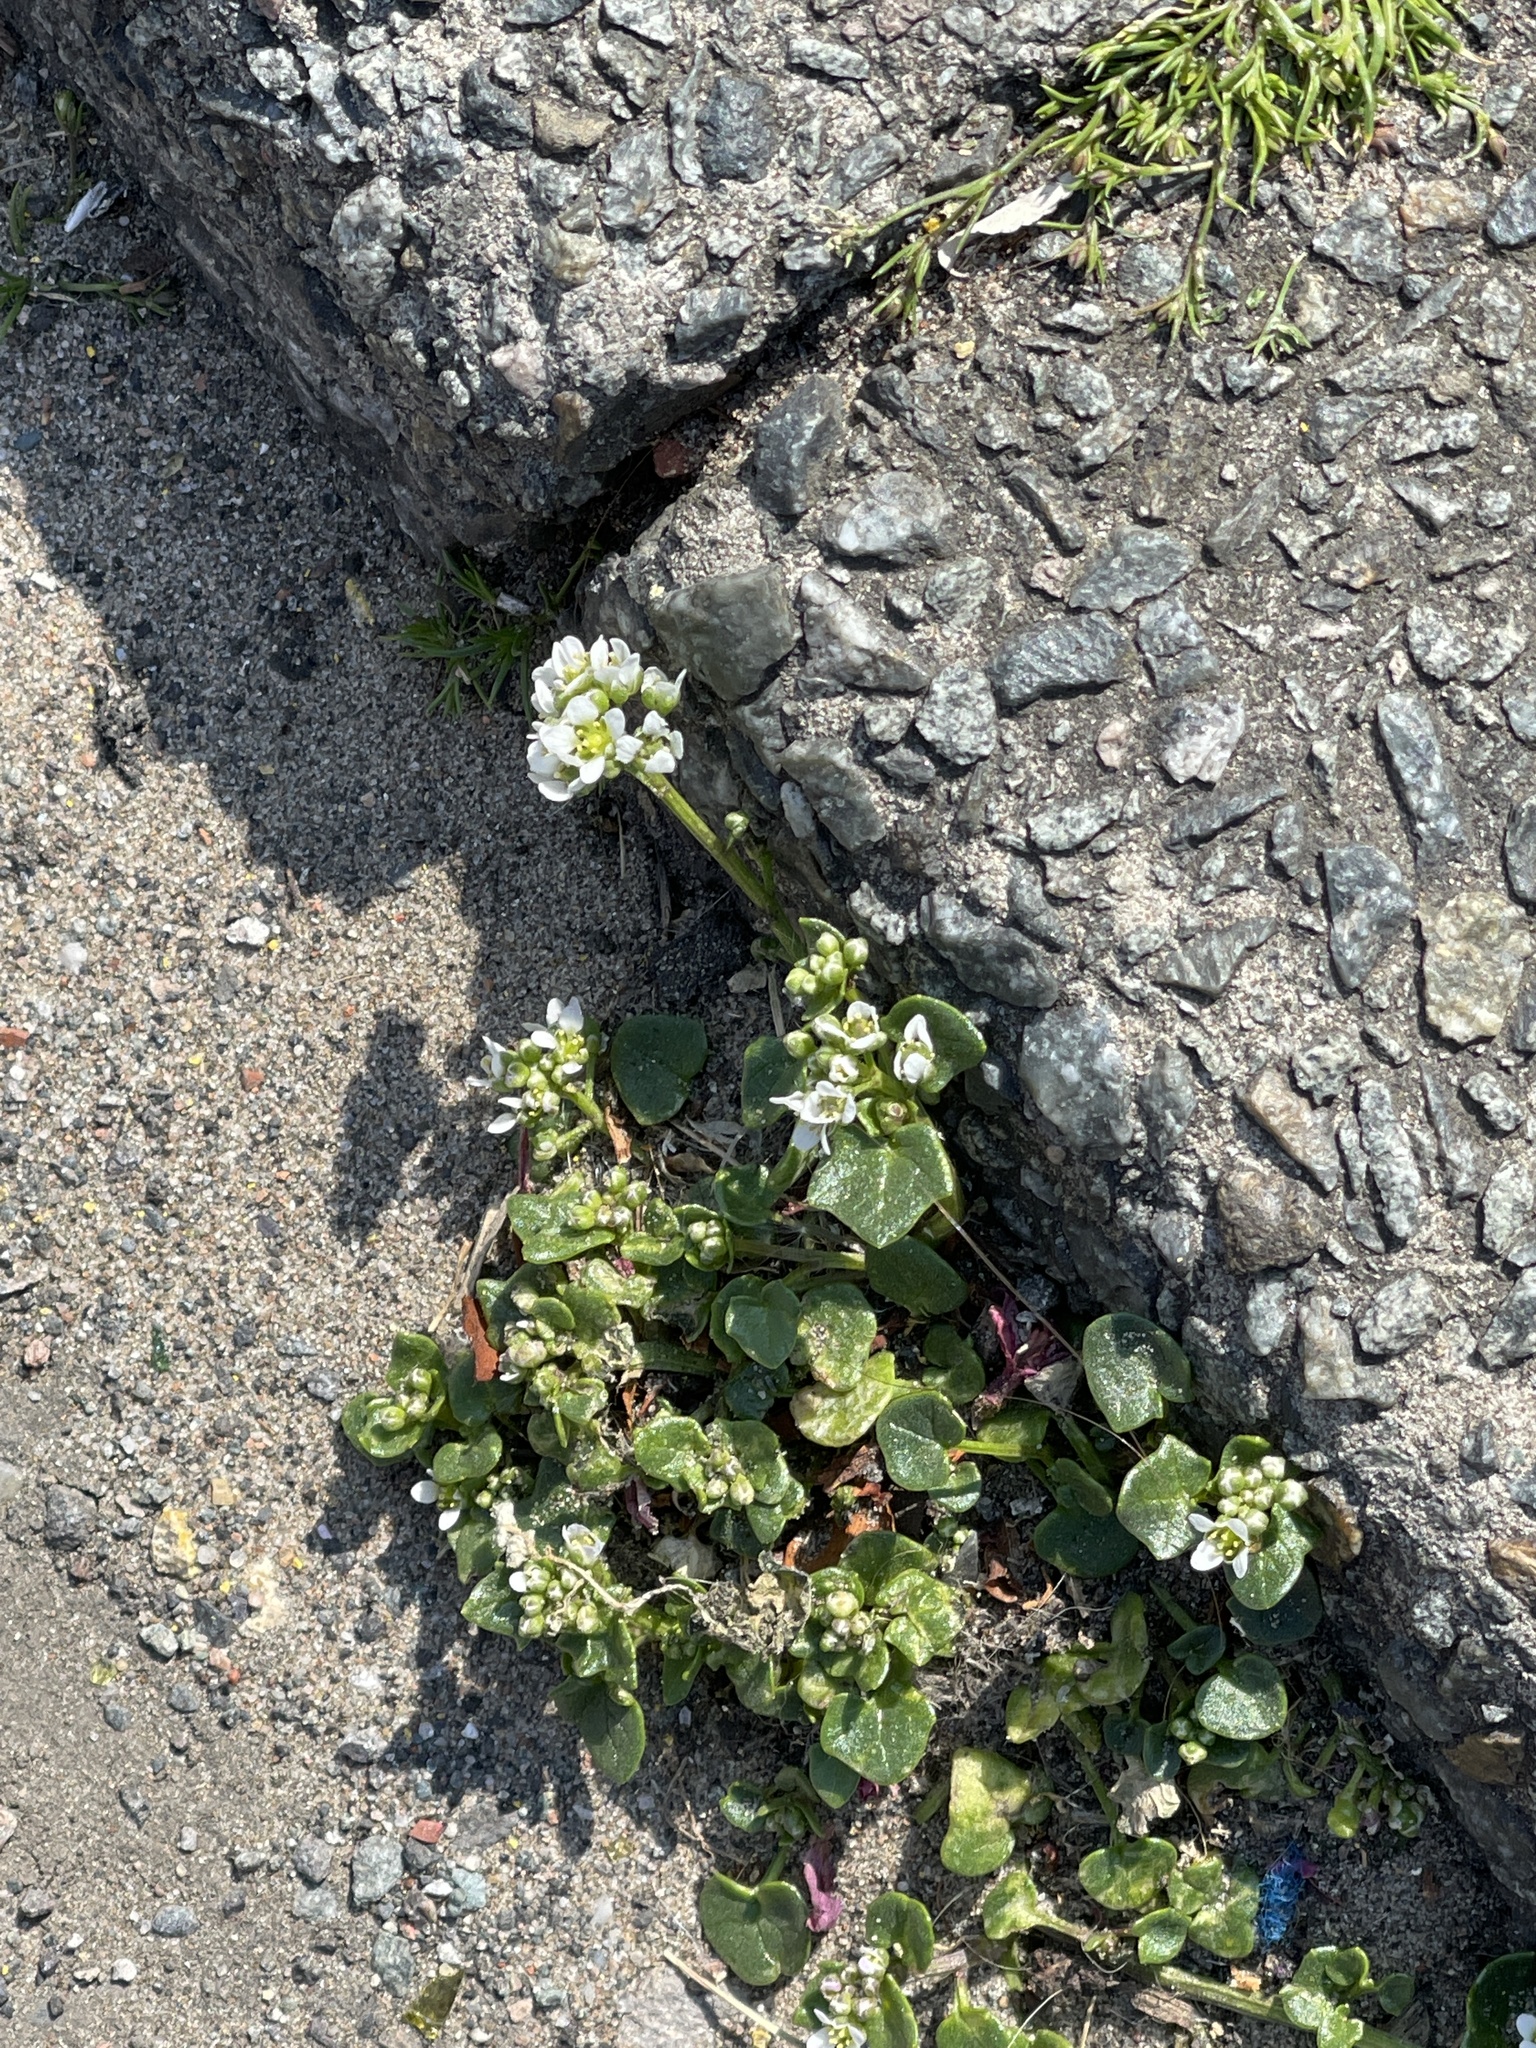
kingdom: Plantae
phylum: Tracheophyta
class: Magnoliopsida
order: Brassicales
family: Brassicaceae
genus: Cochlearia
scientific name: Cochlearia danica
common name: Early scurvygrass
